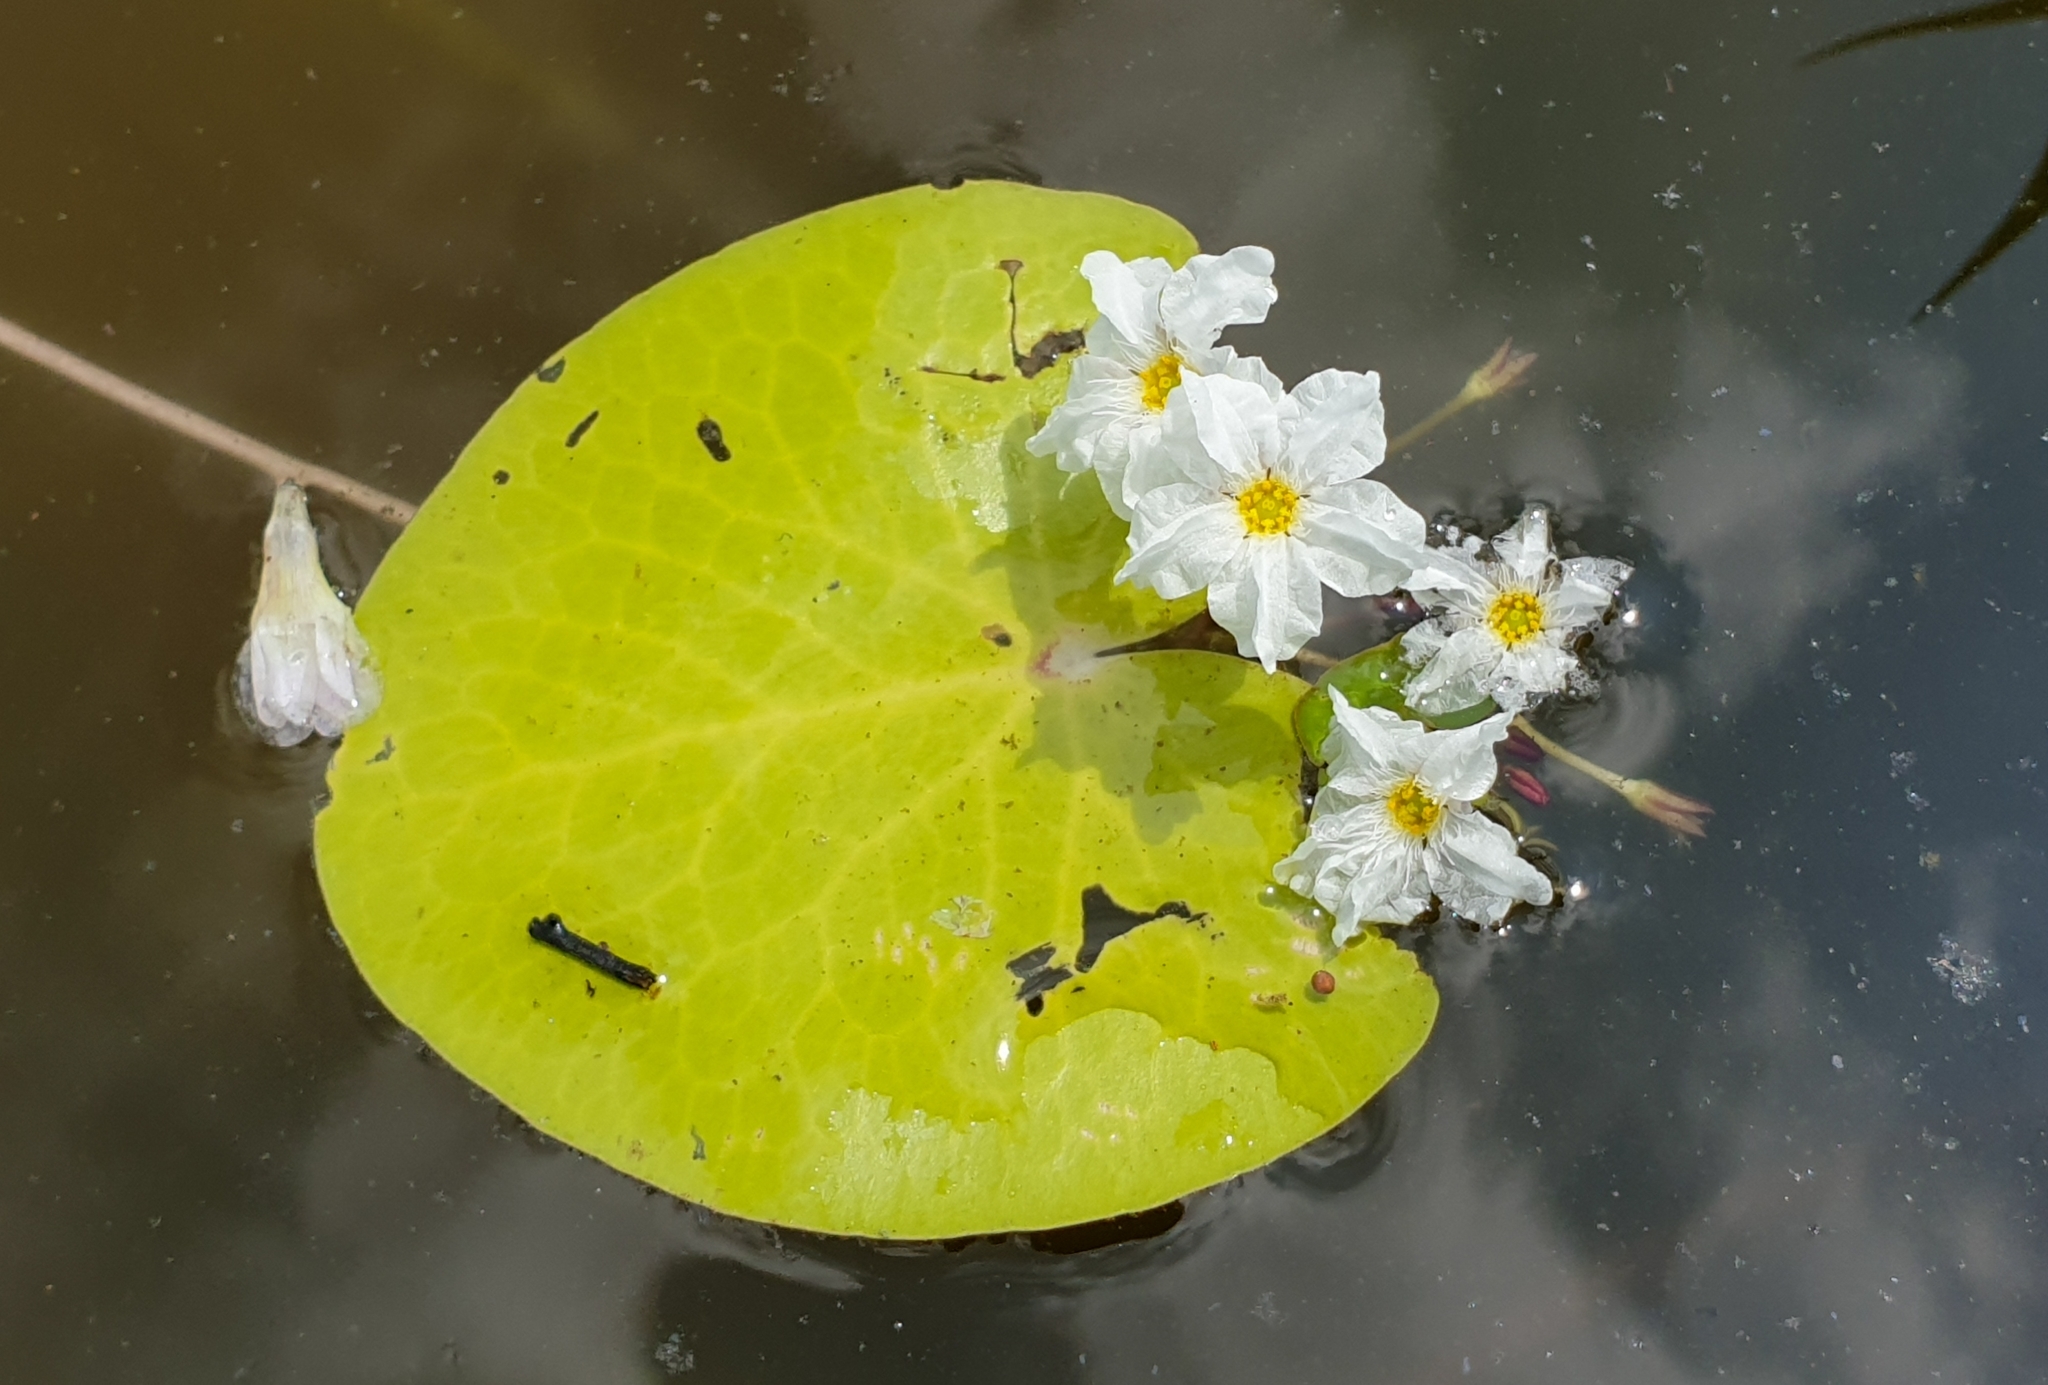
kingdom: Plantae
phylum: Tracheophyta
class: Magnoliopsida
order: Asterales
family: Menyanthaceae
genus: Nymphoides
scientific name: Nymphoides hydrophylla
